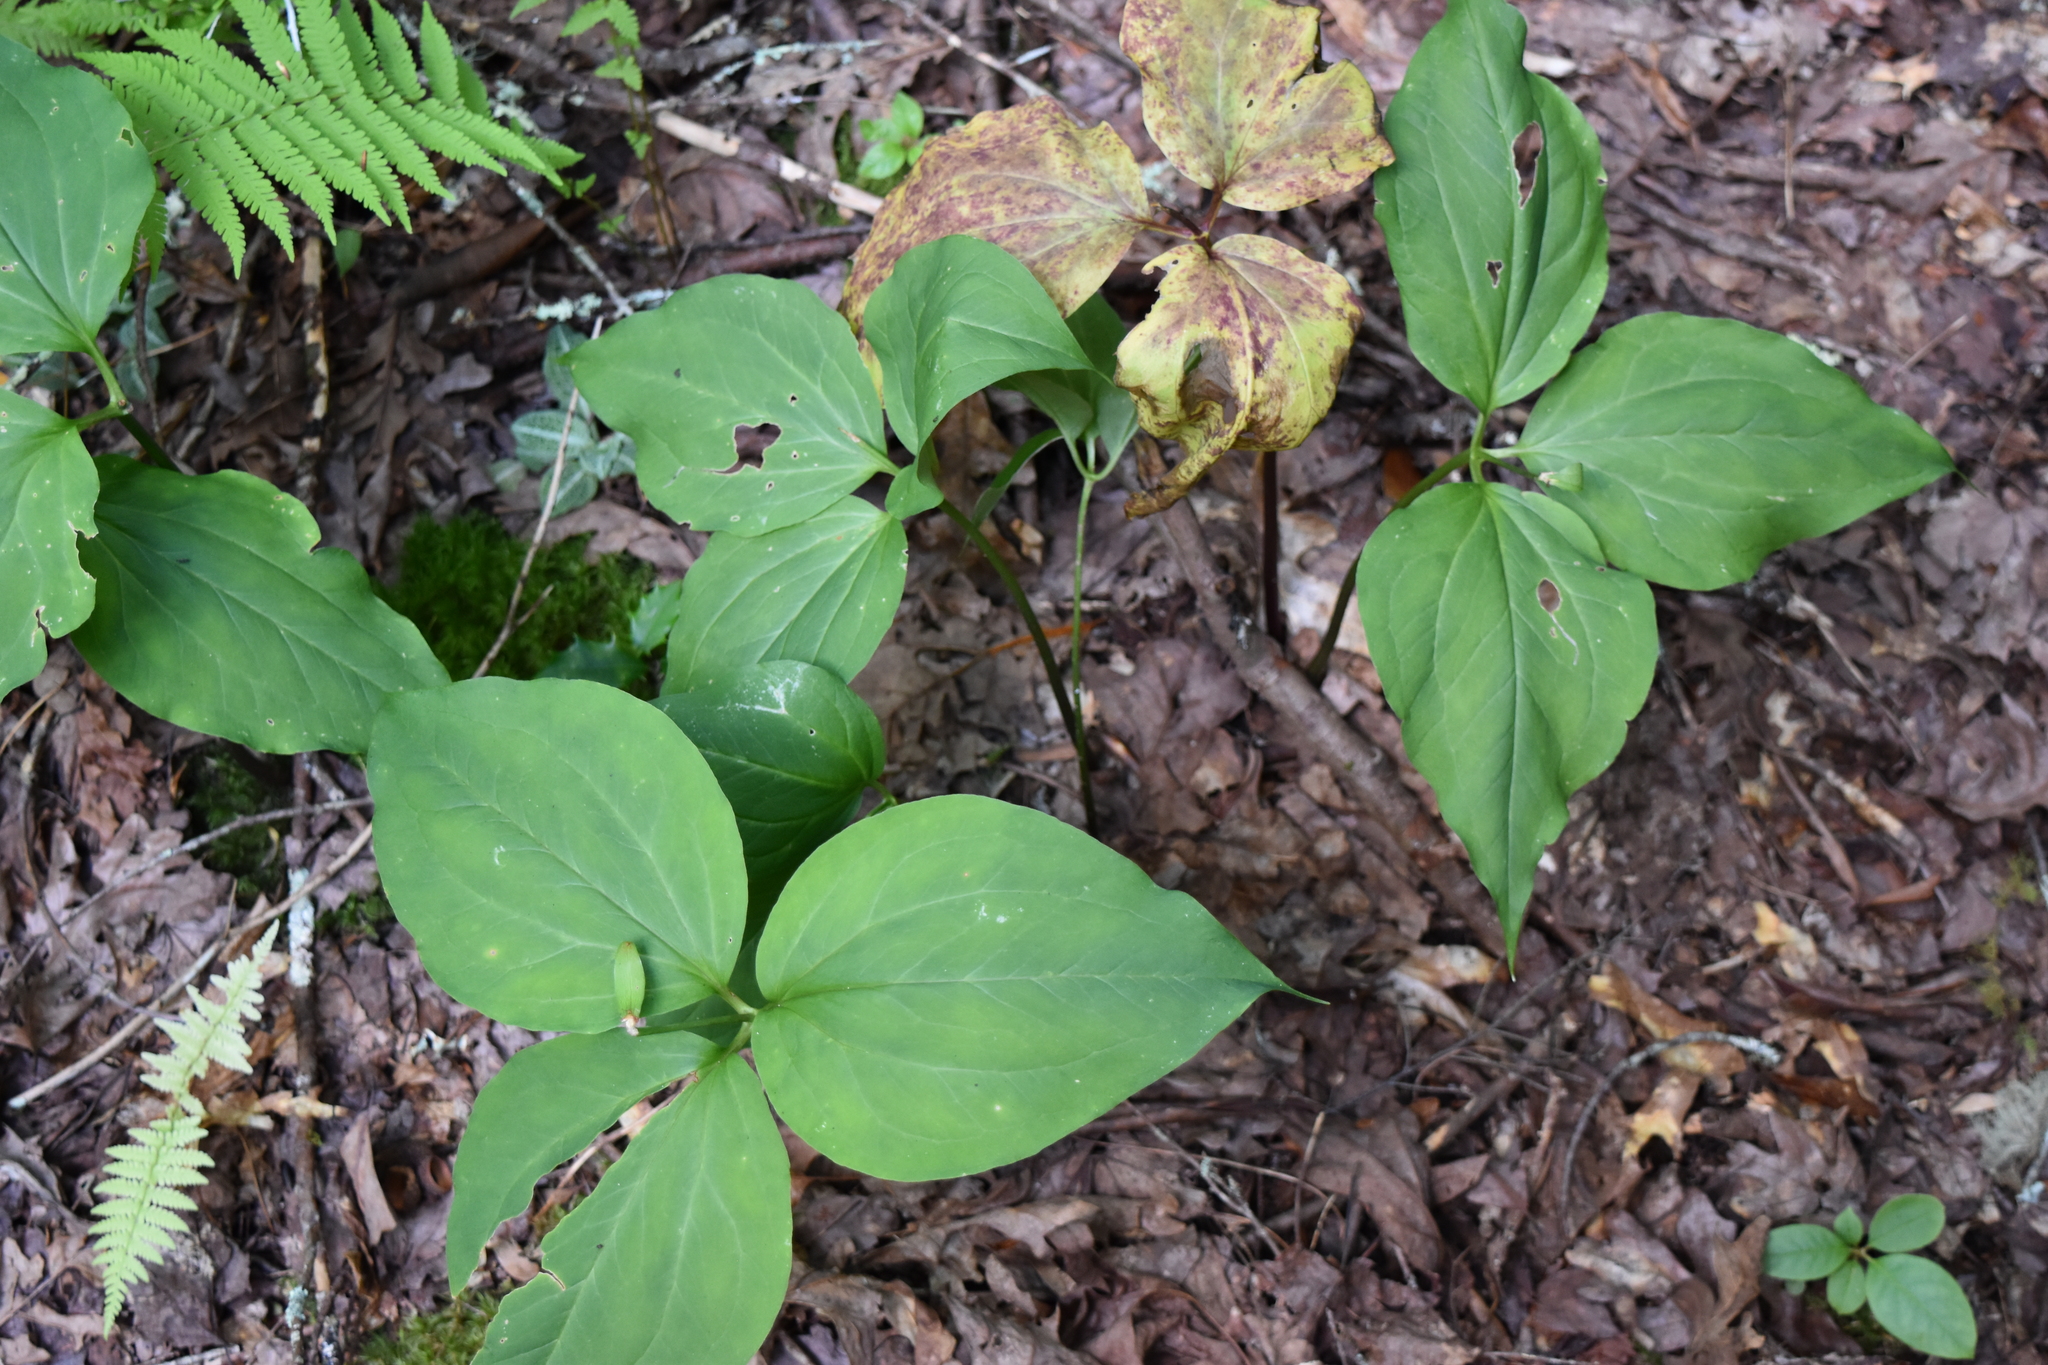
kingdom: Plantae
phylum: Tracheophyta
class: Liliopsida
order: Liliales
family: Melanthiaceae
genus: Trillium
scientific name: Trillium undulatum
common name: Paint trillium
